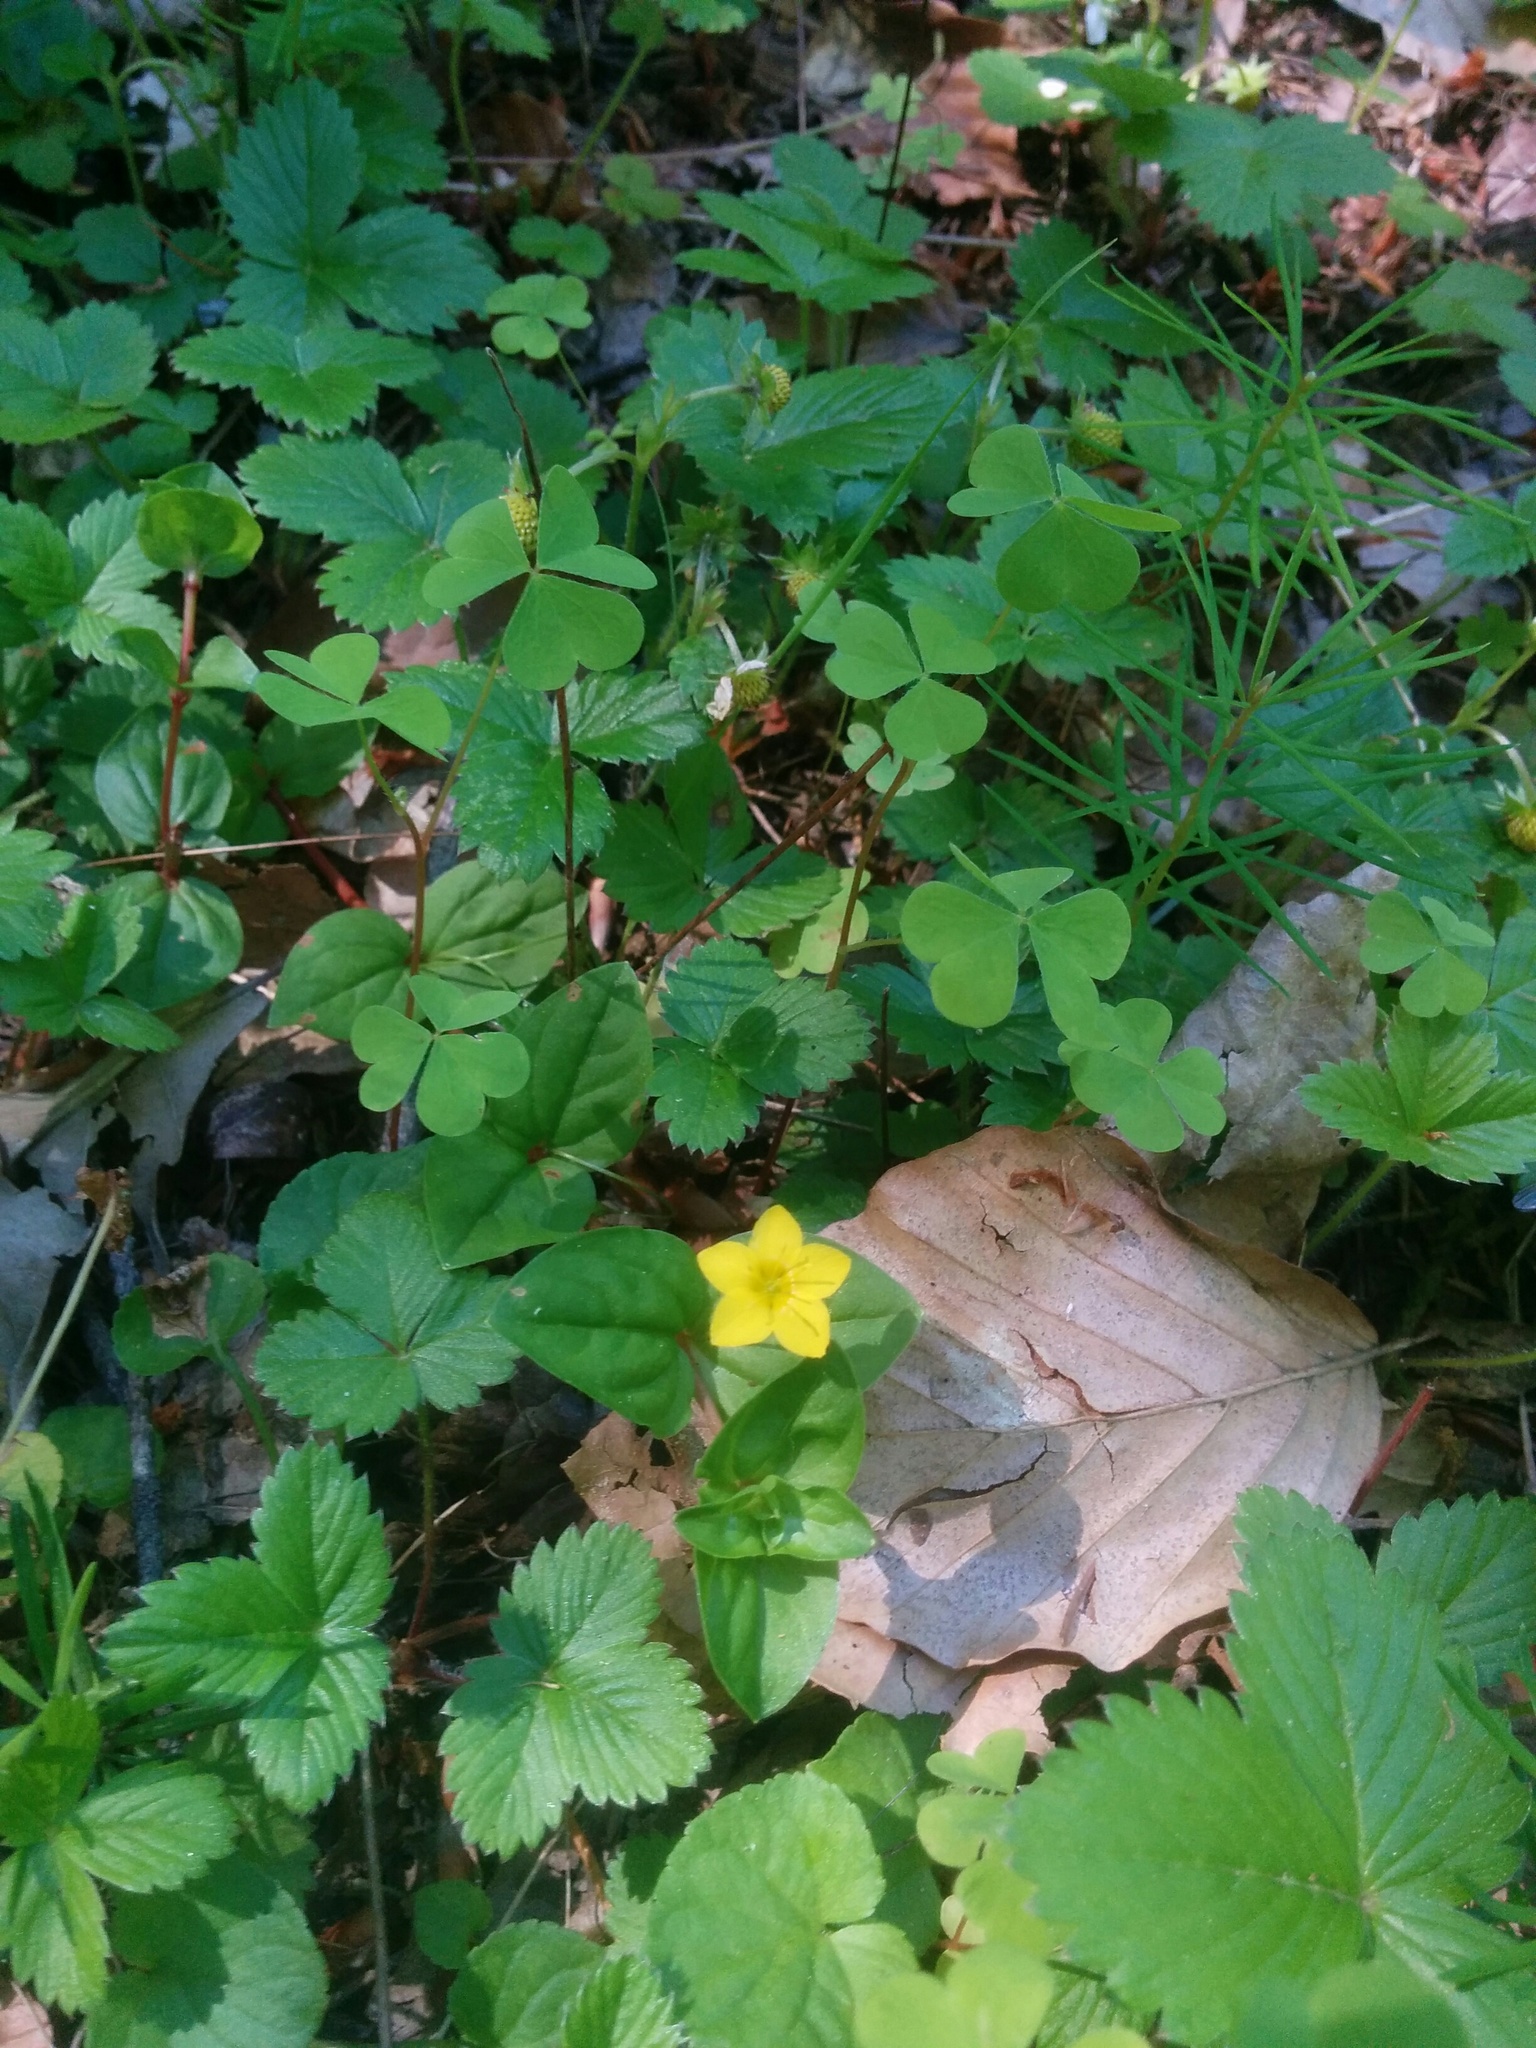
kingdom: Plantae
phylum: Tracheophyta
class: Magnoliopsida
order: Ericales
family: Primulaceae
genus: Lysimachia
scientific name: Lysimachia nemorum
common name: Yellow pimpernel
